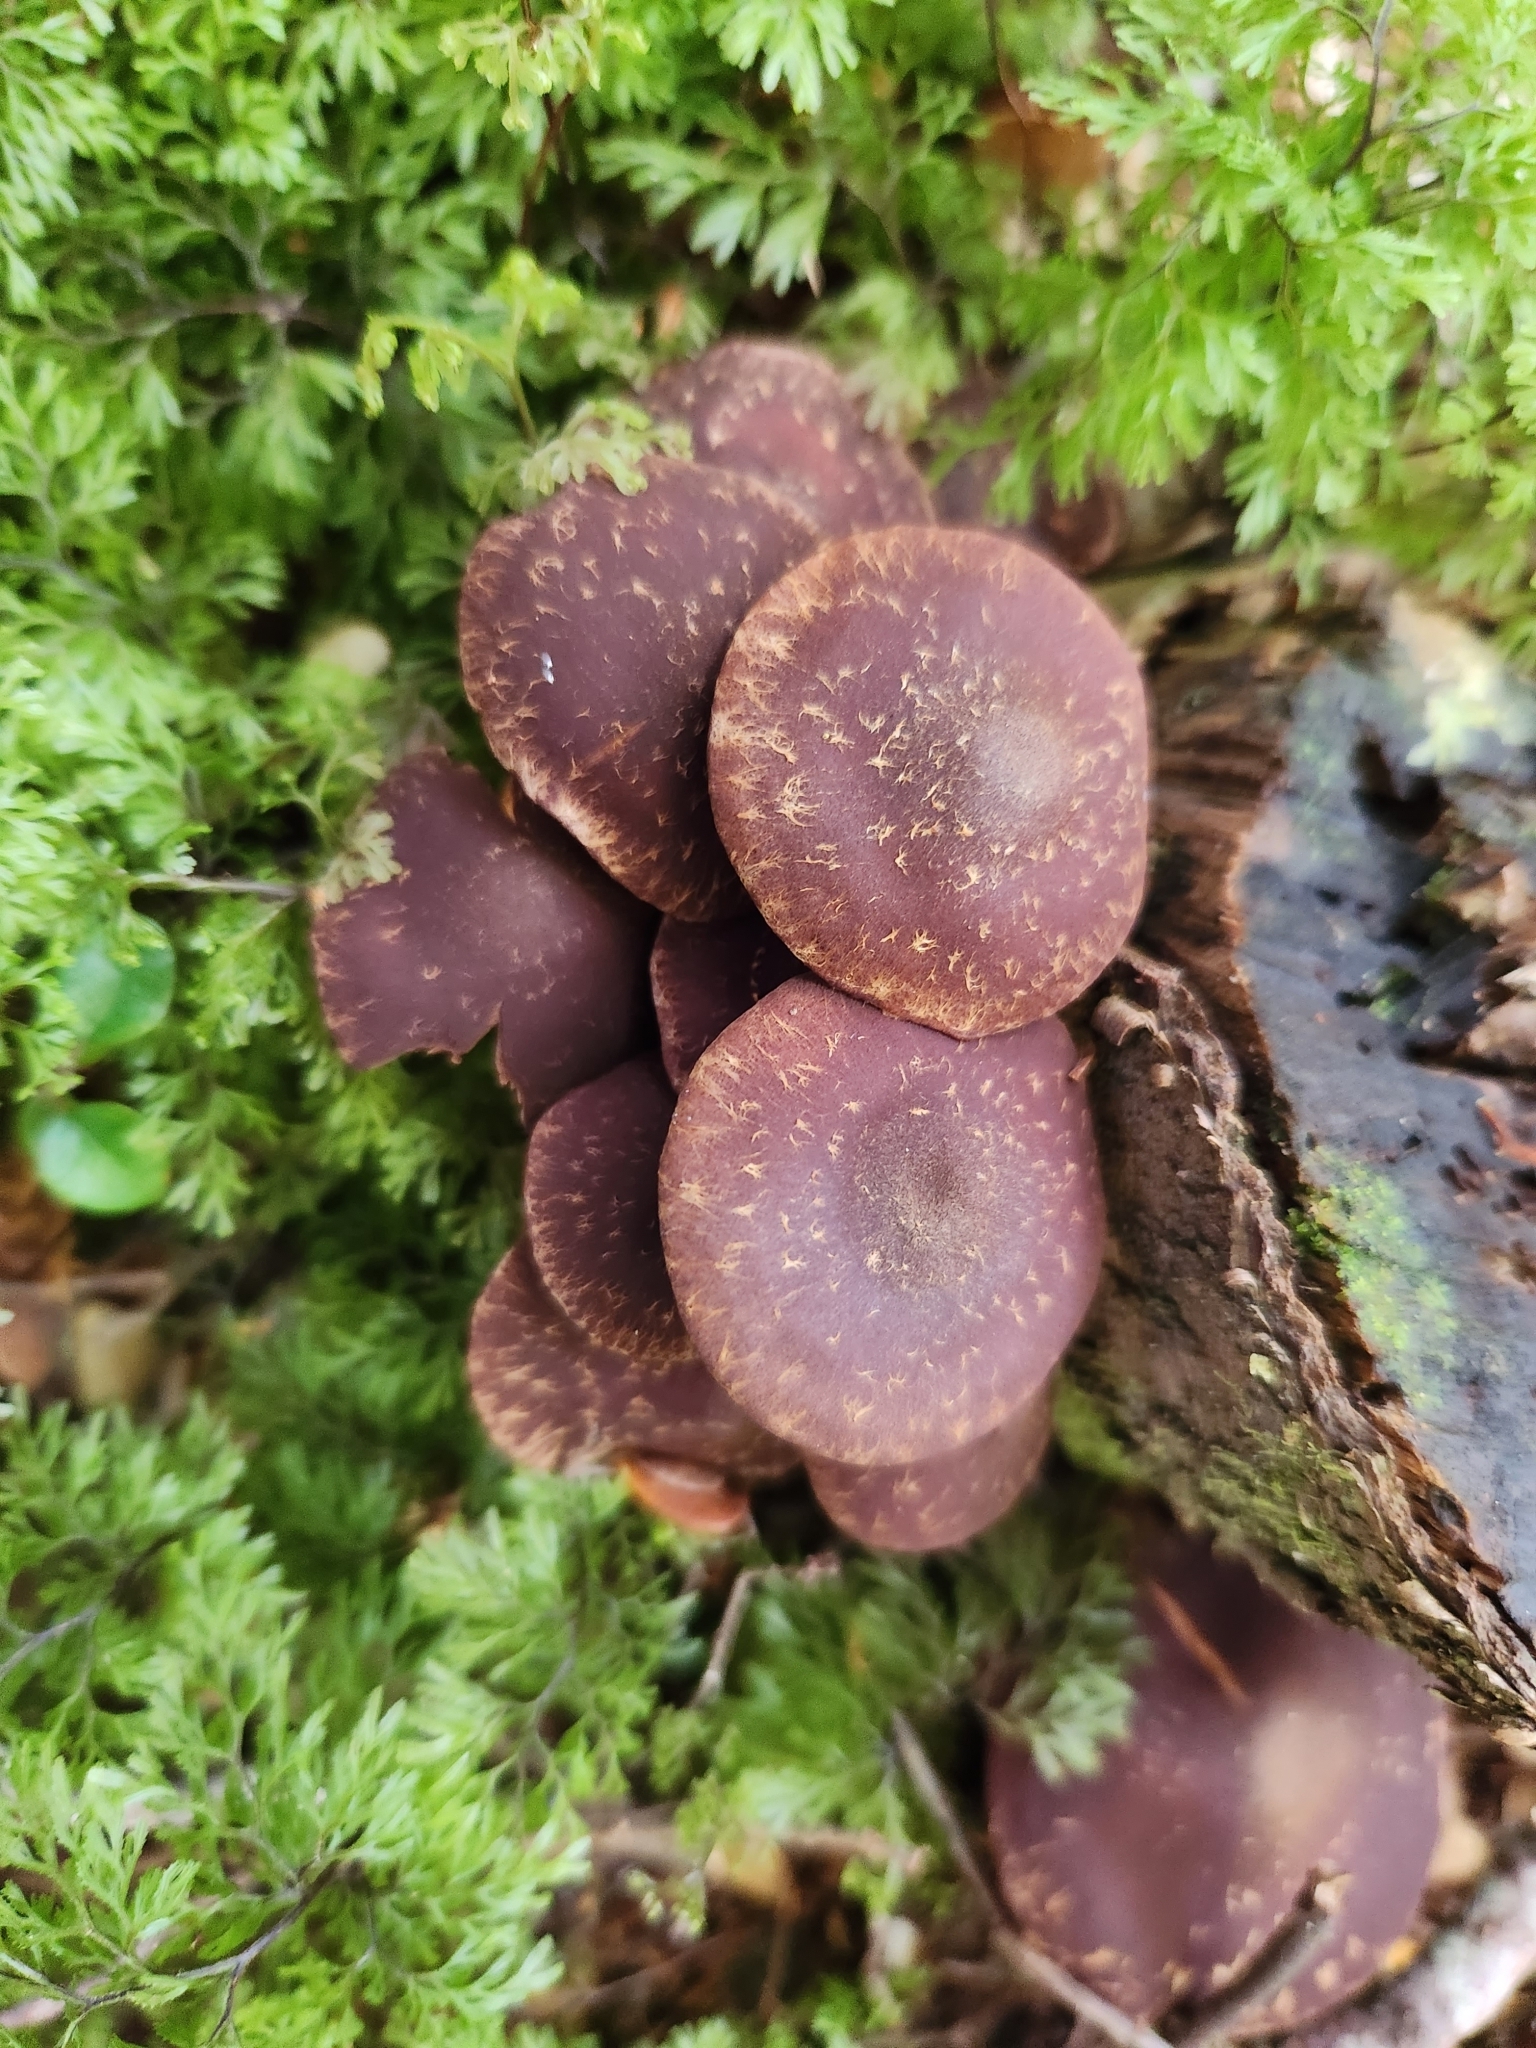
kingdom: Fungi
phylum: Basidiomycota
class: Agaricomycetes
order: Agaricales
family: Strophariaceae
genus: Hypholoma
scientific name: Hypholoma brunneum
